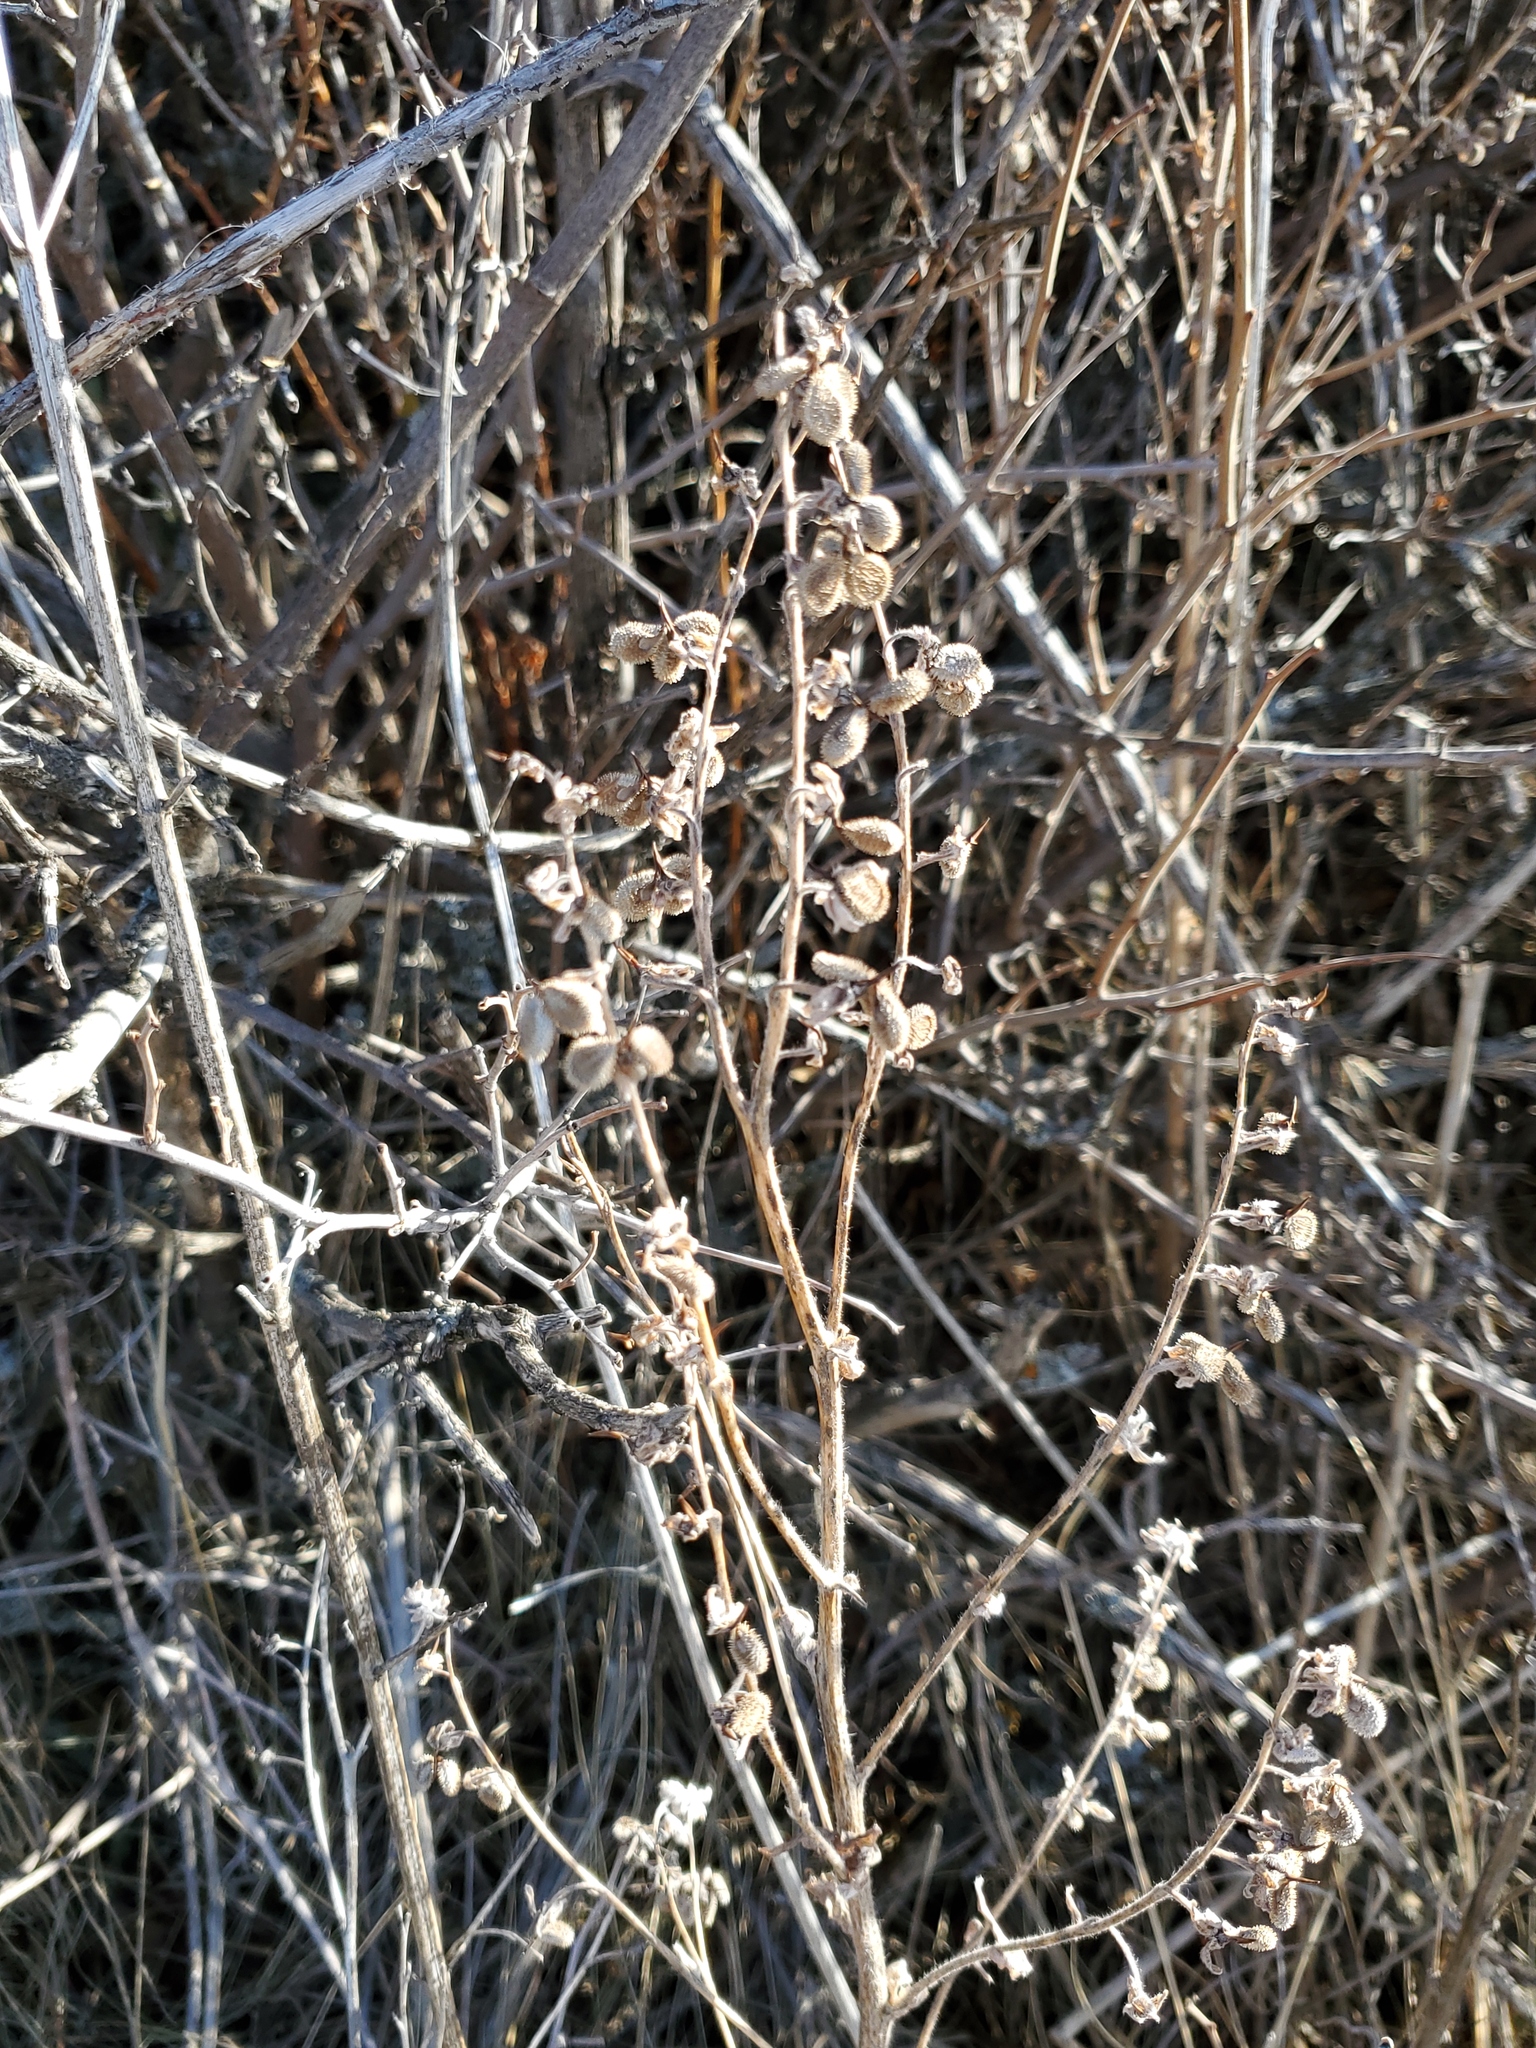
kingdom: Plantae
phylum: Tracheophyta
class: Magnoliopsida
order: Boraginales
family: Boraginaceae
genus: Cynoglossum
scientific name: Cynoglossum officinale
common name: Hound's-tongue
